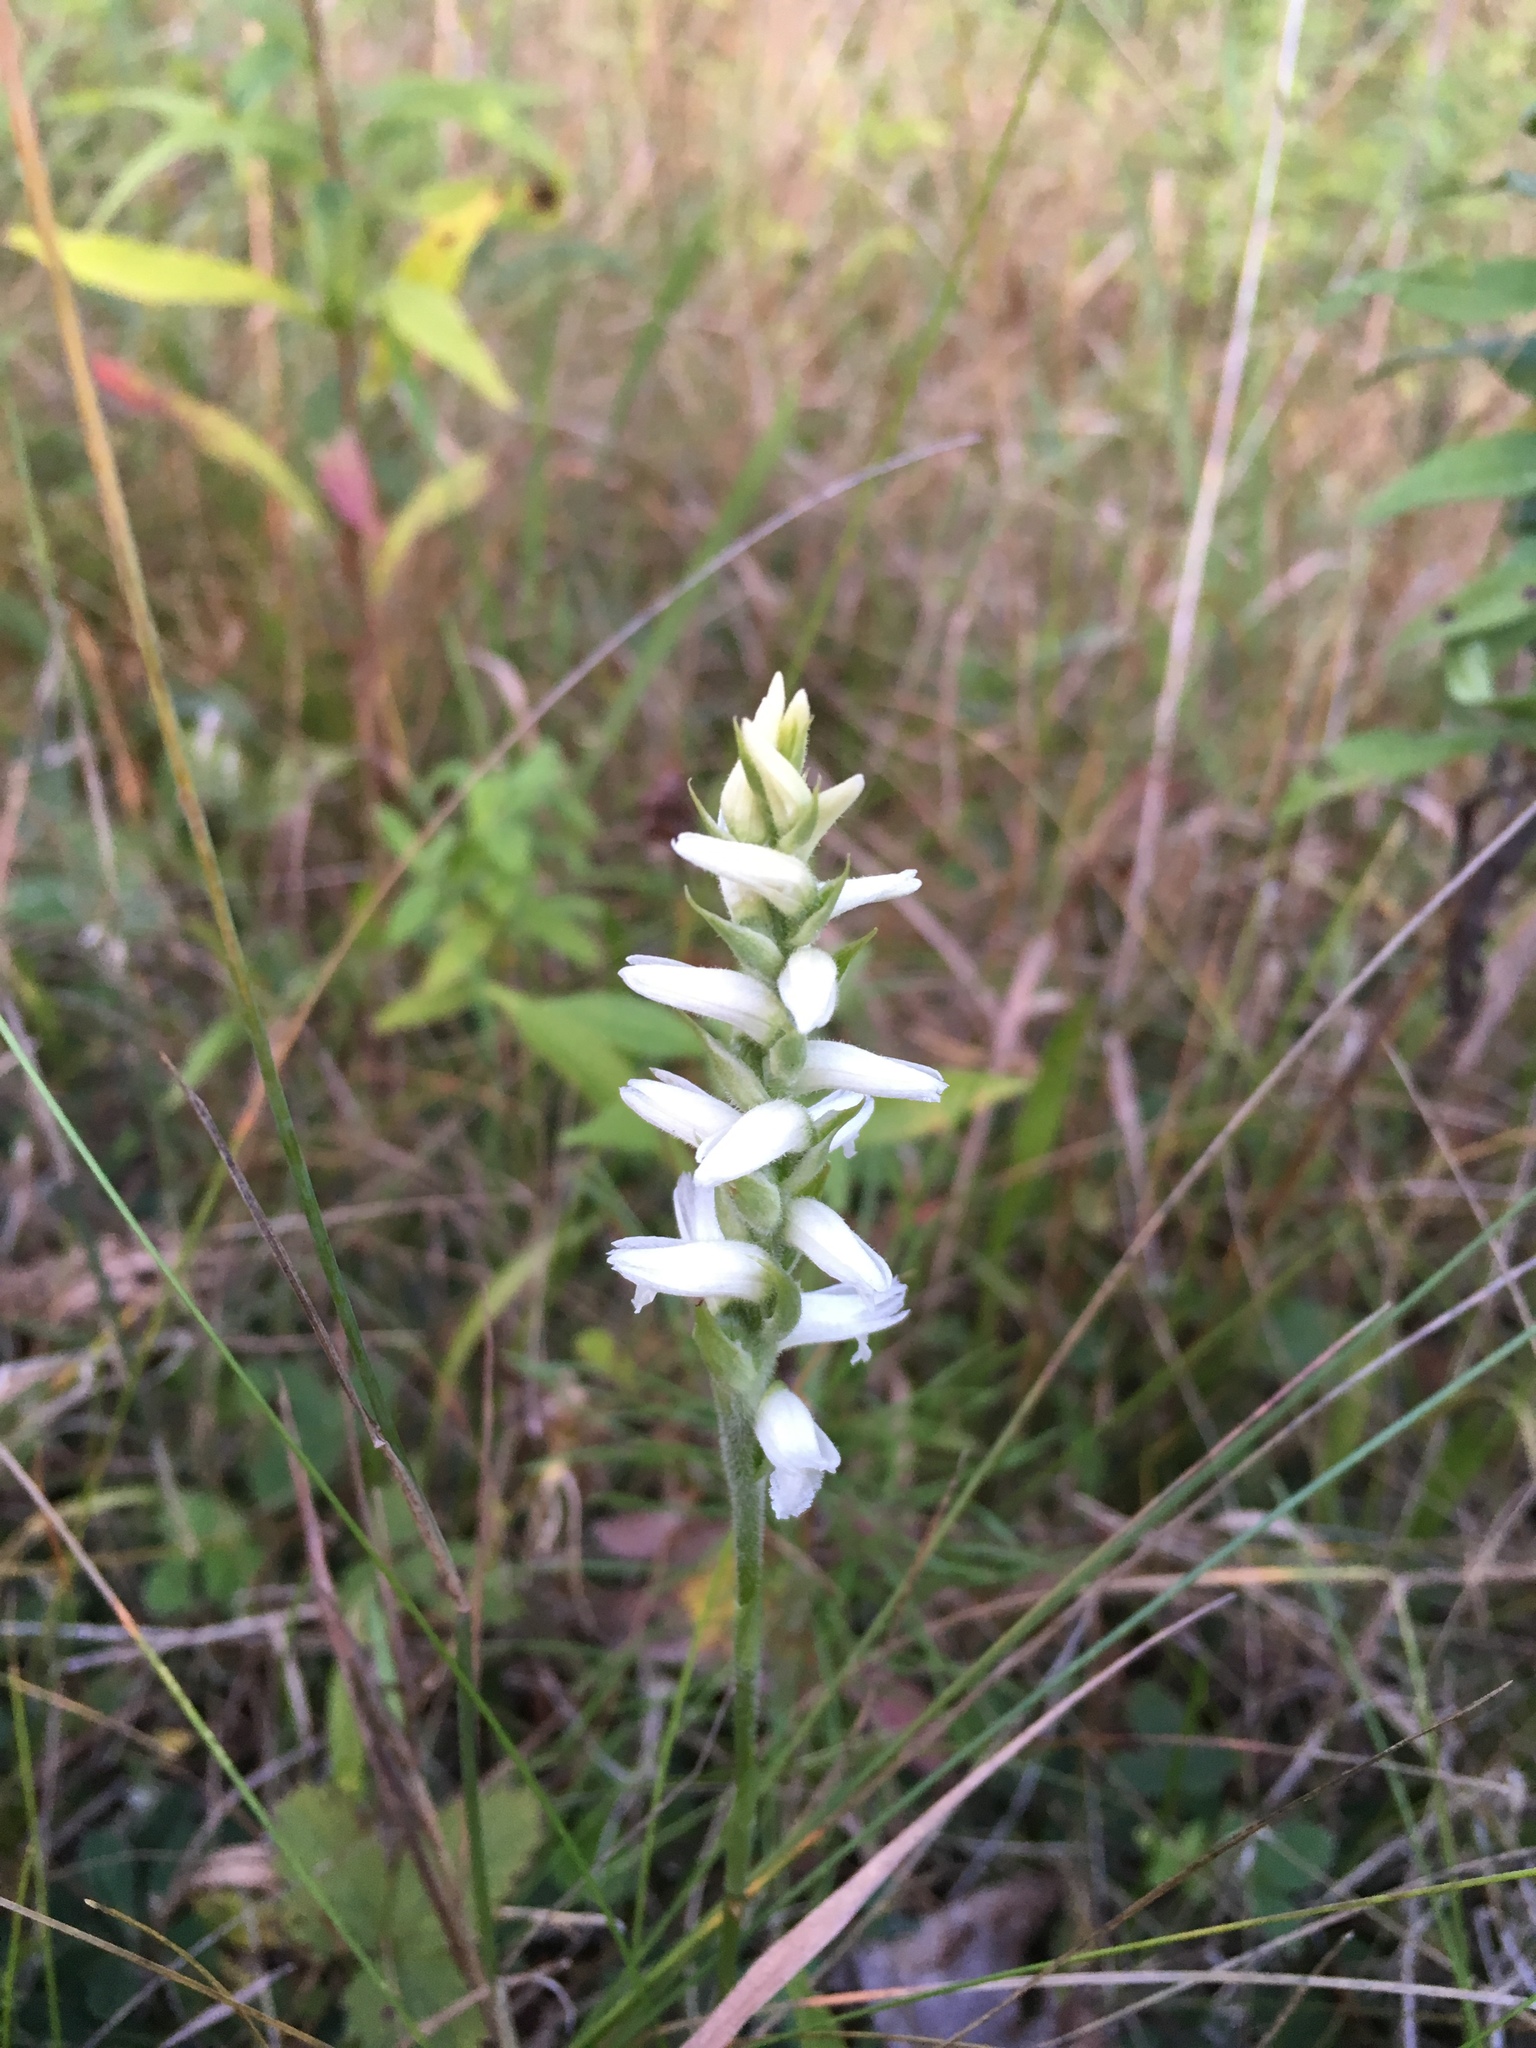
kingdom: Plantae
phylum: Tracheophyta
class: Liliopsida
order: Asparagales
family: Orchidaceae
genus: Spiranthes
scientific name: Spiranthes incurva
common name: Sphinx ladies'-tresses
